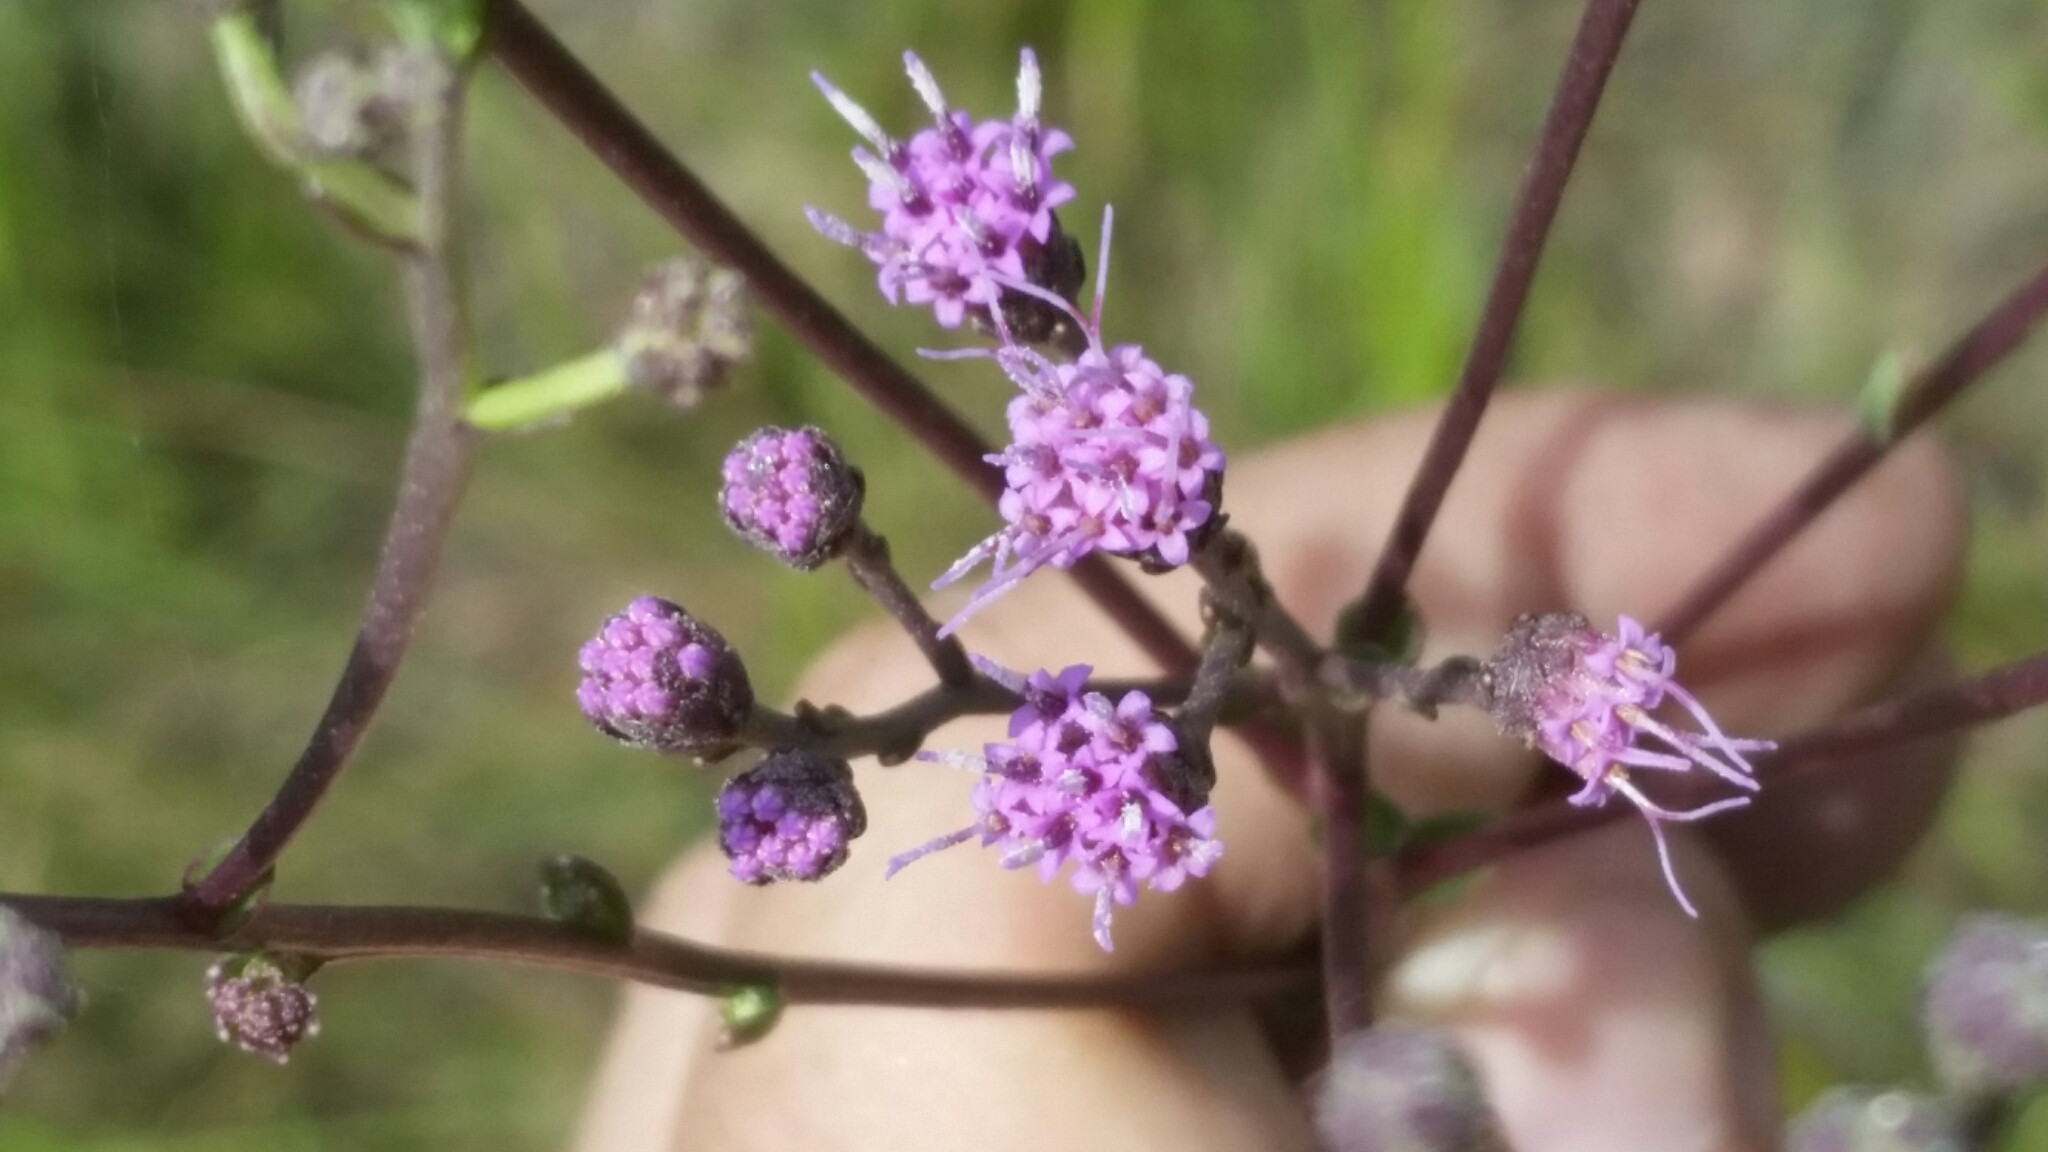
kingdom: Plantae
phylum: Tracheophyta
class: Magnoliopsida
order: Asterales
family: Asteraceae
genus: Carphephorus
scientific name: Carphephorus
